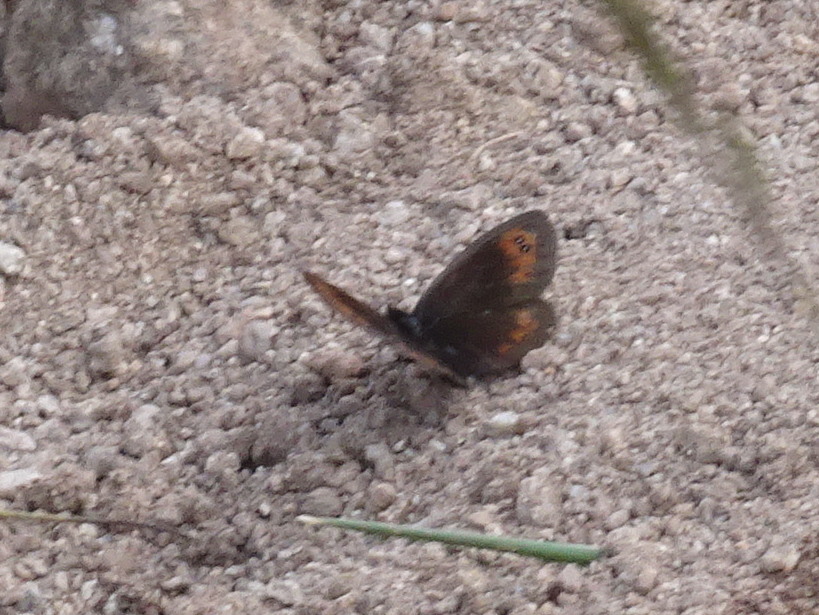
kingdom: Animalia
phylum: Arthropoda
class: Insecta
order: Lepidoptera
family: Nymphalidae
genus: Erebia
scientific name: Erebia meolans
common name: Piedmont ringlet
